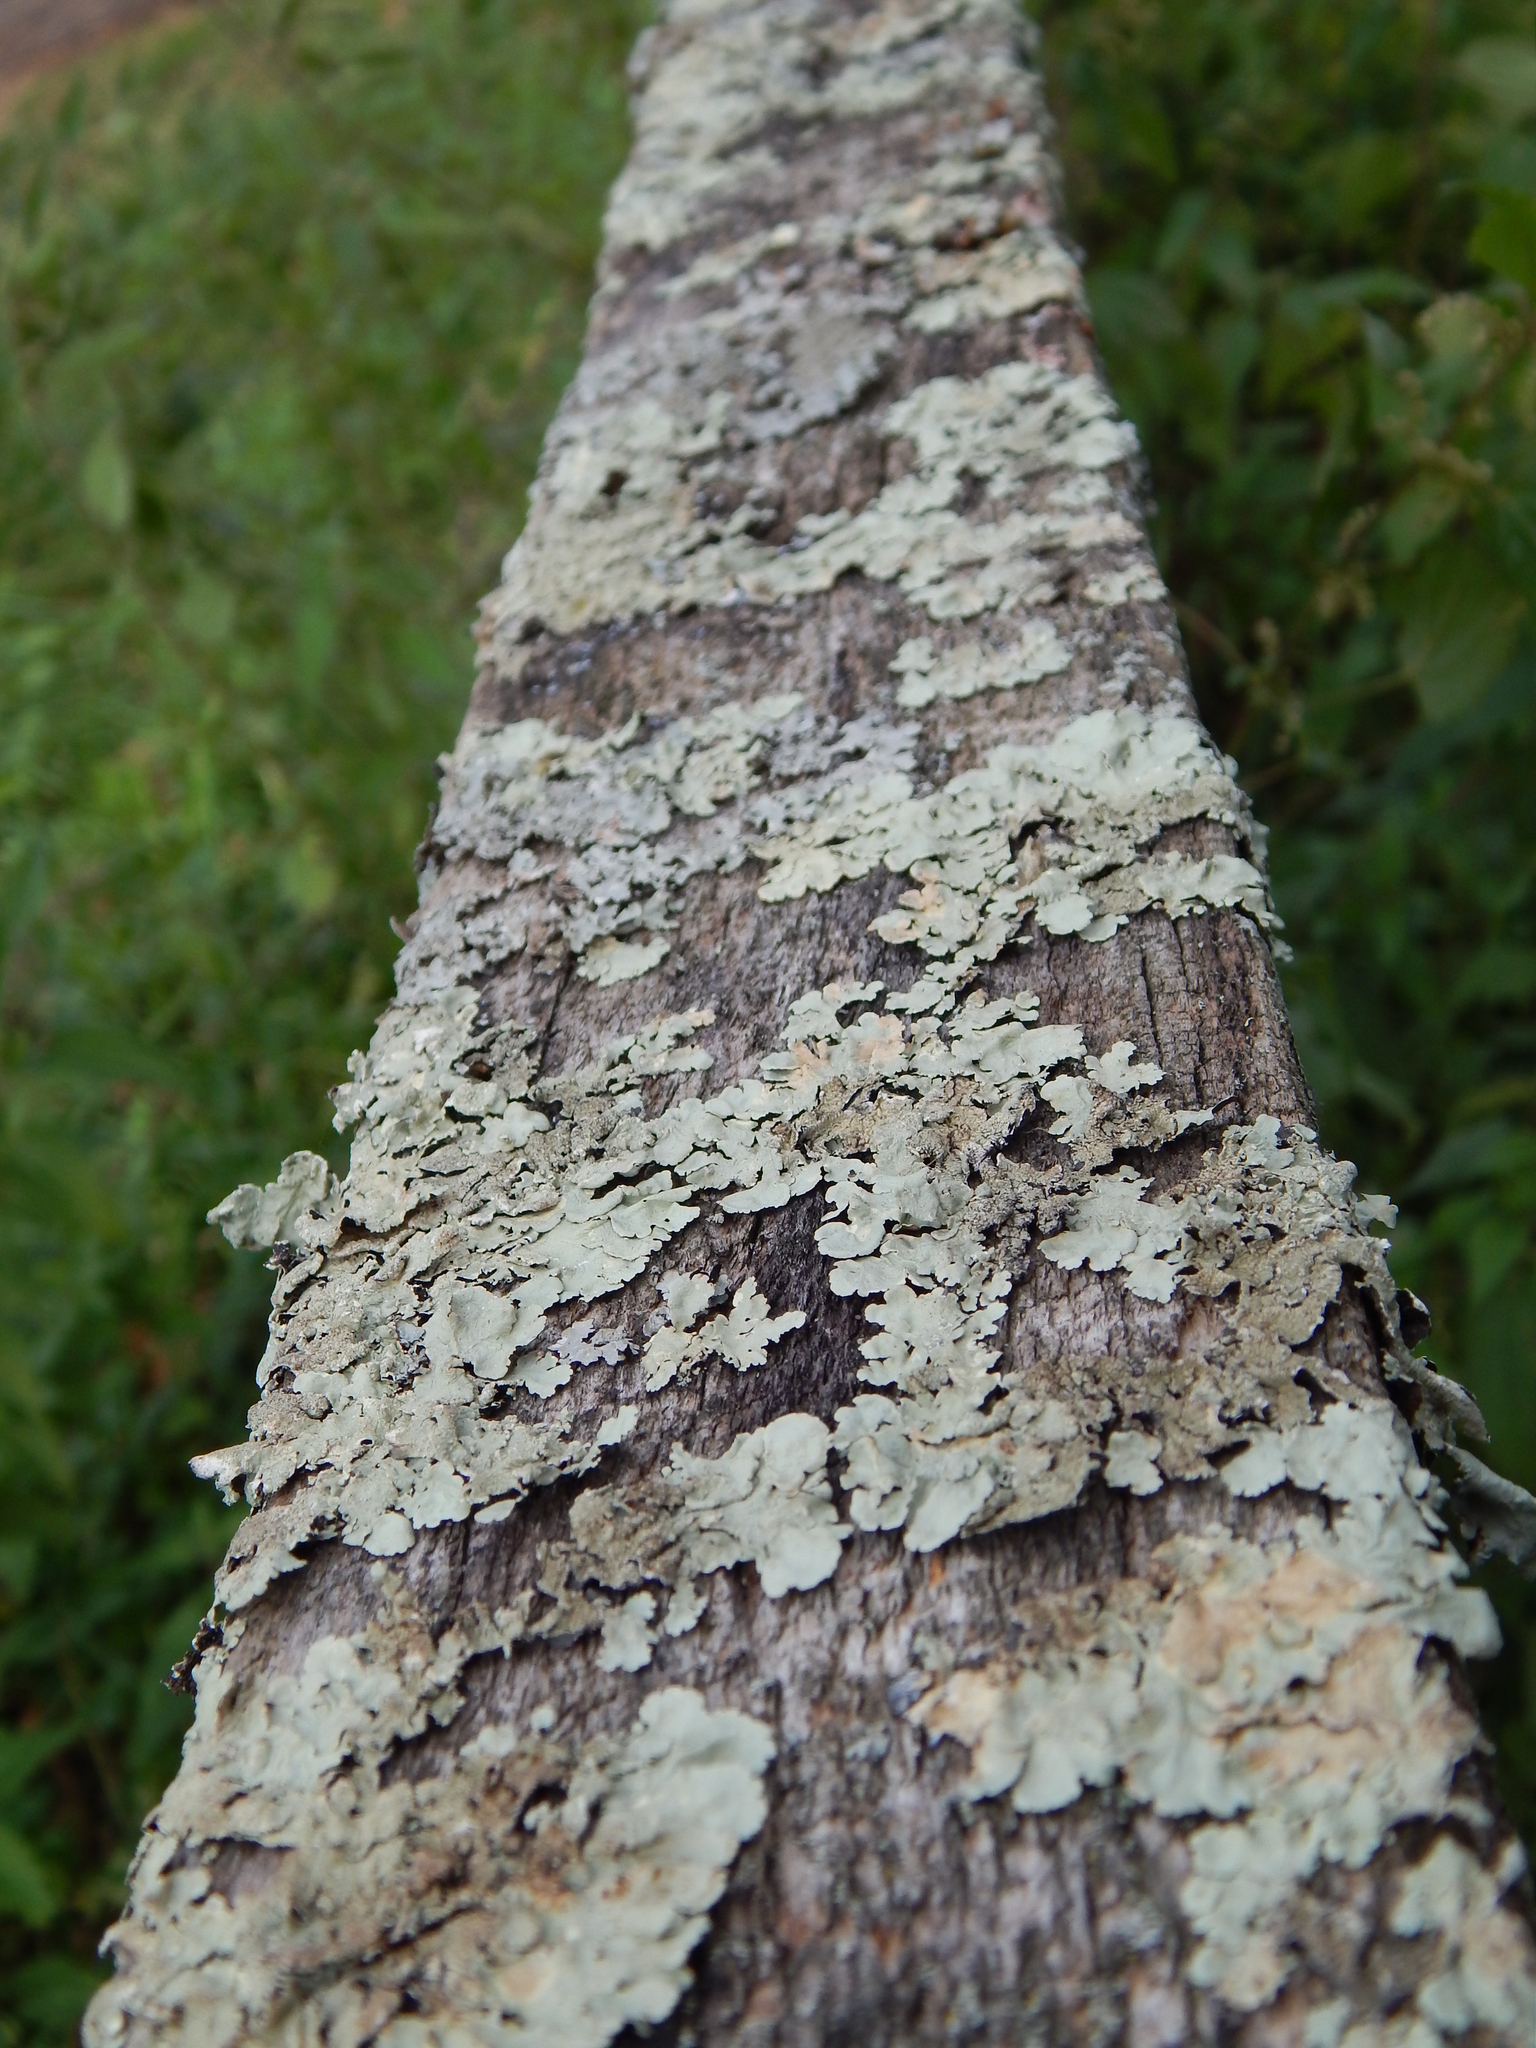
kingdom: Fungi
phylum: Ascomycota
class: Lecanoromycetes
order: Lecanorales
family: Parmeliaceae
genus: Flavoparmelia
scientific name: Flavoparmelia caperata
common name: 40-mile per hour lichen
